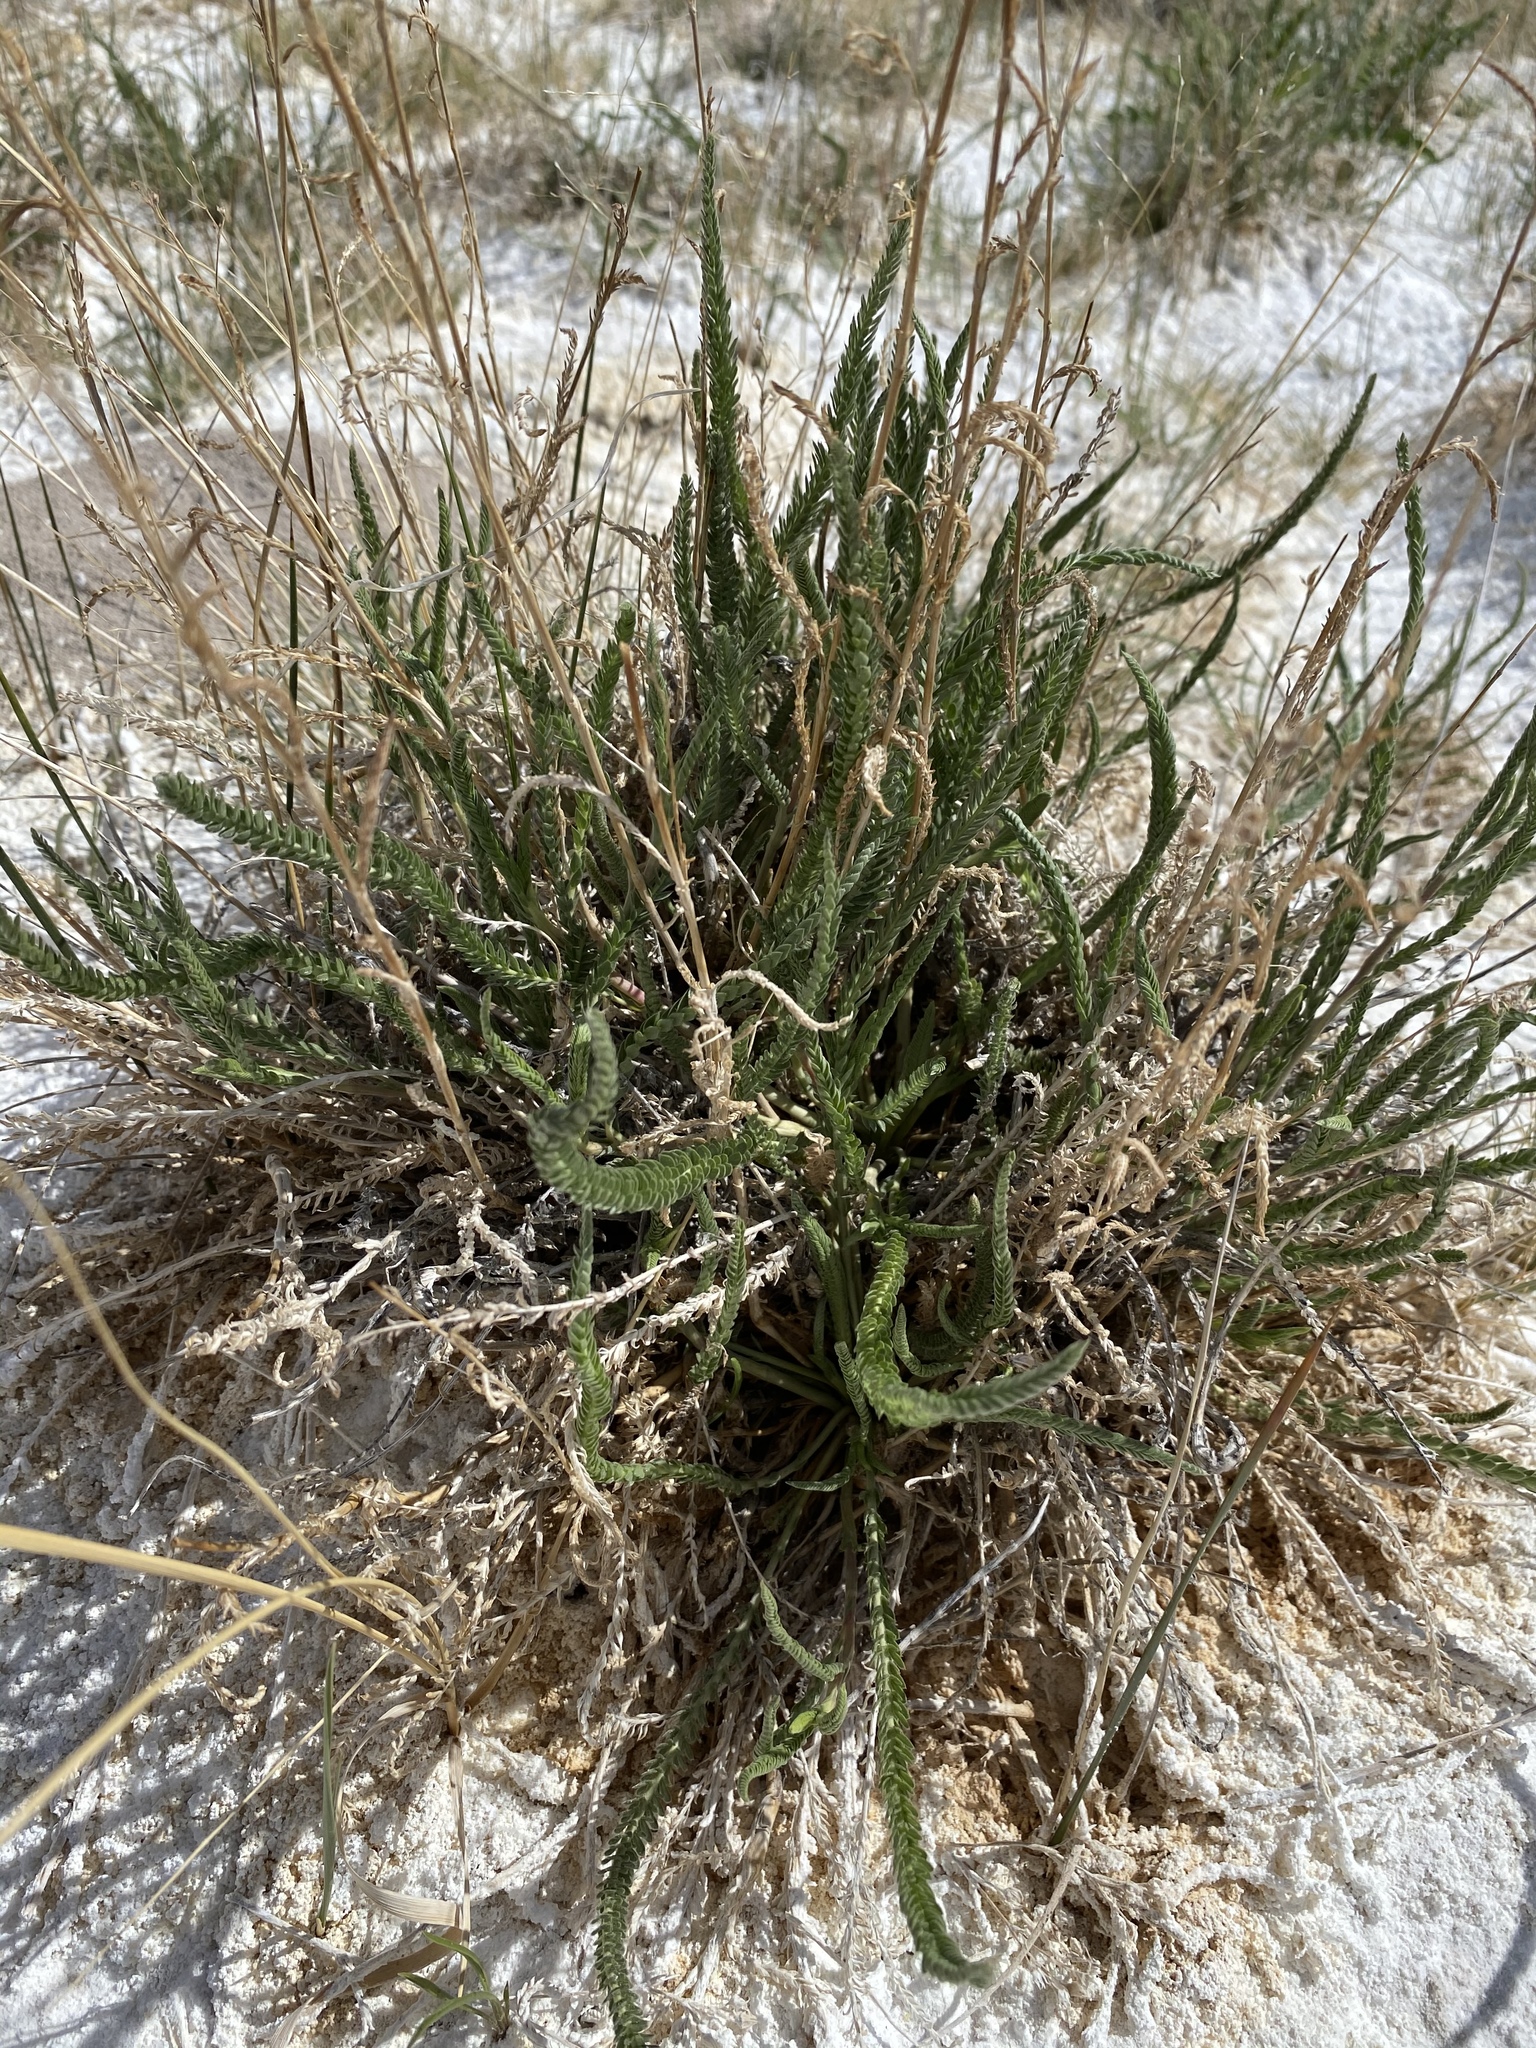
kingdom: Plantae
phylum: Tracheophyta
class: Magnoliopsida
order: Rosales
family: Rosaceae
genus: Potentilla
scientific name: Potentilla kingii
